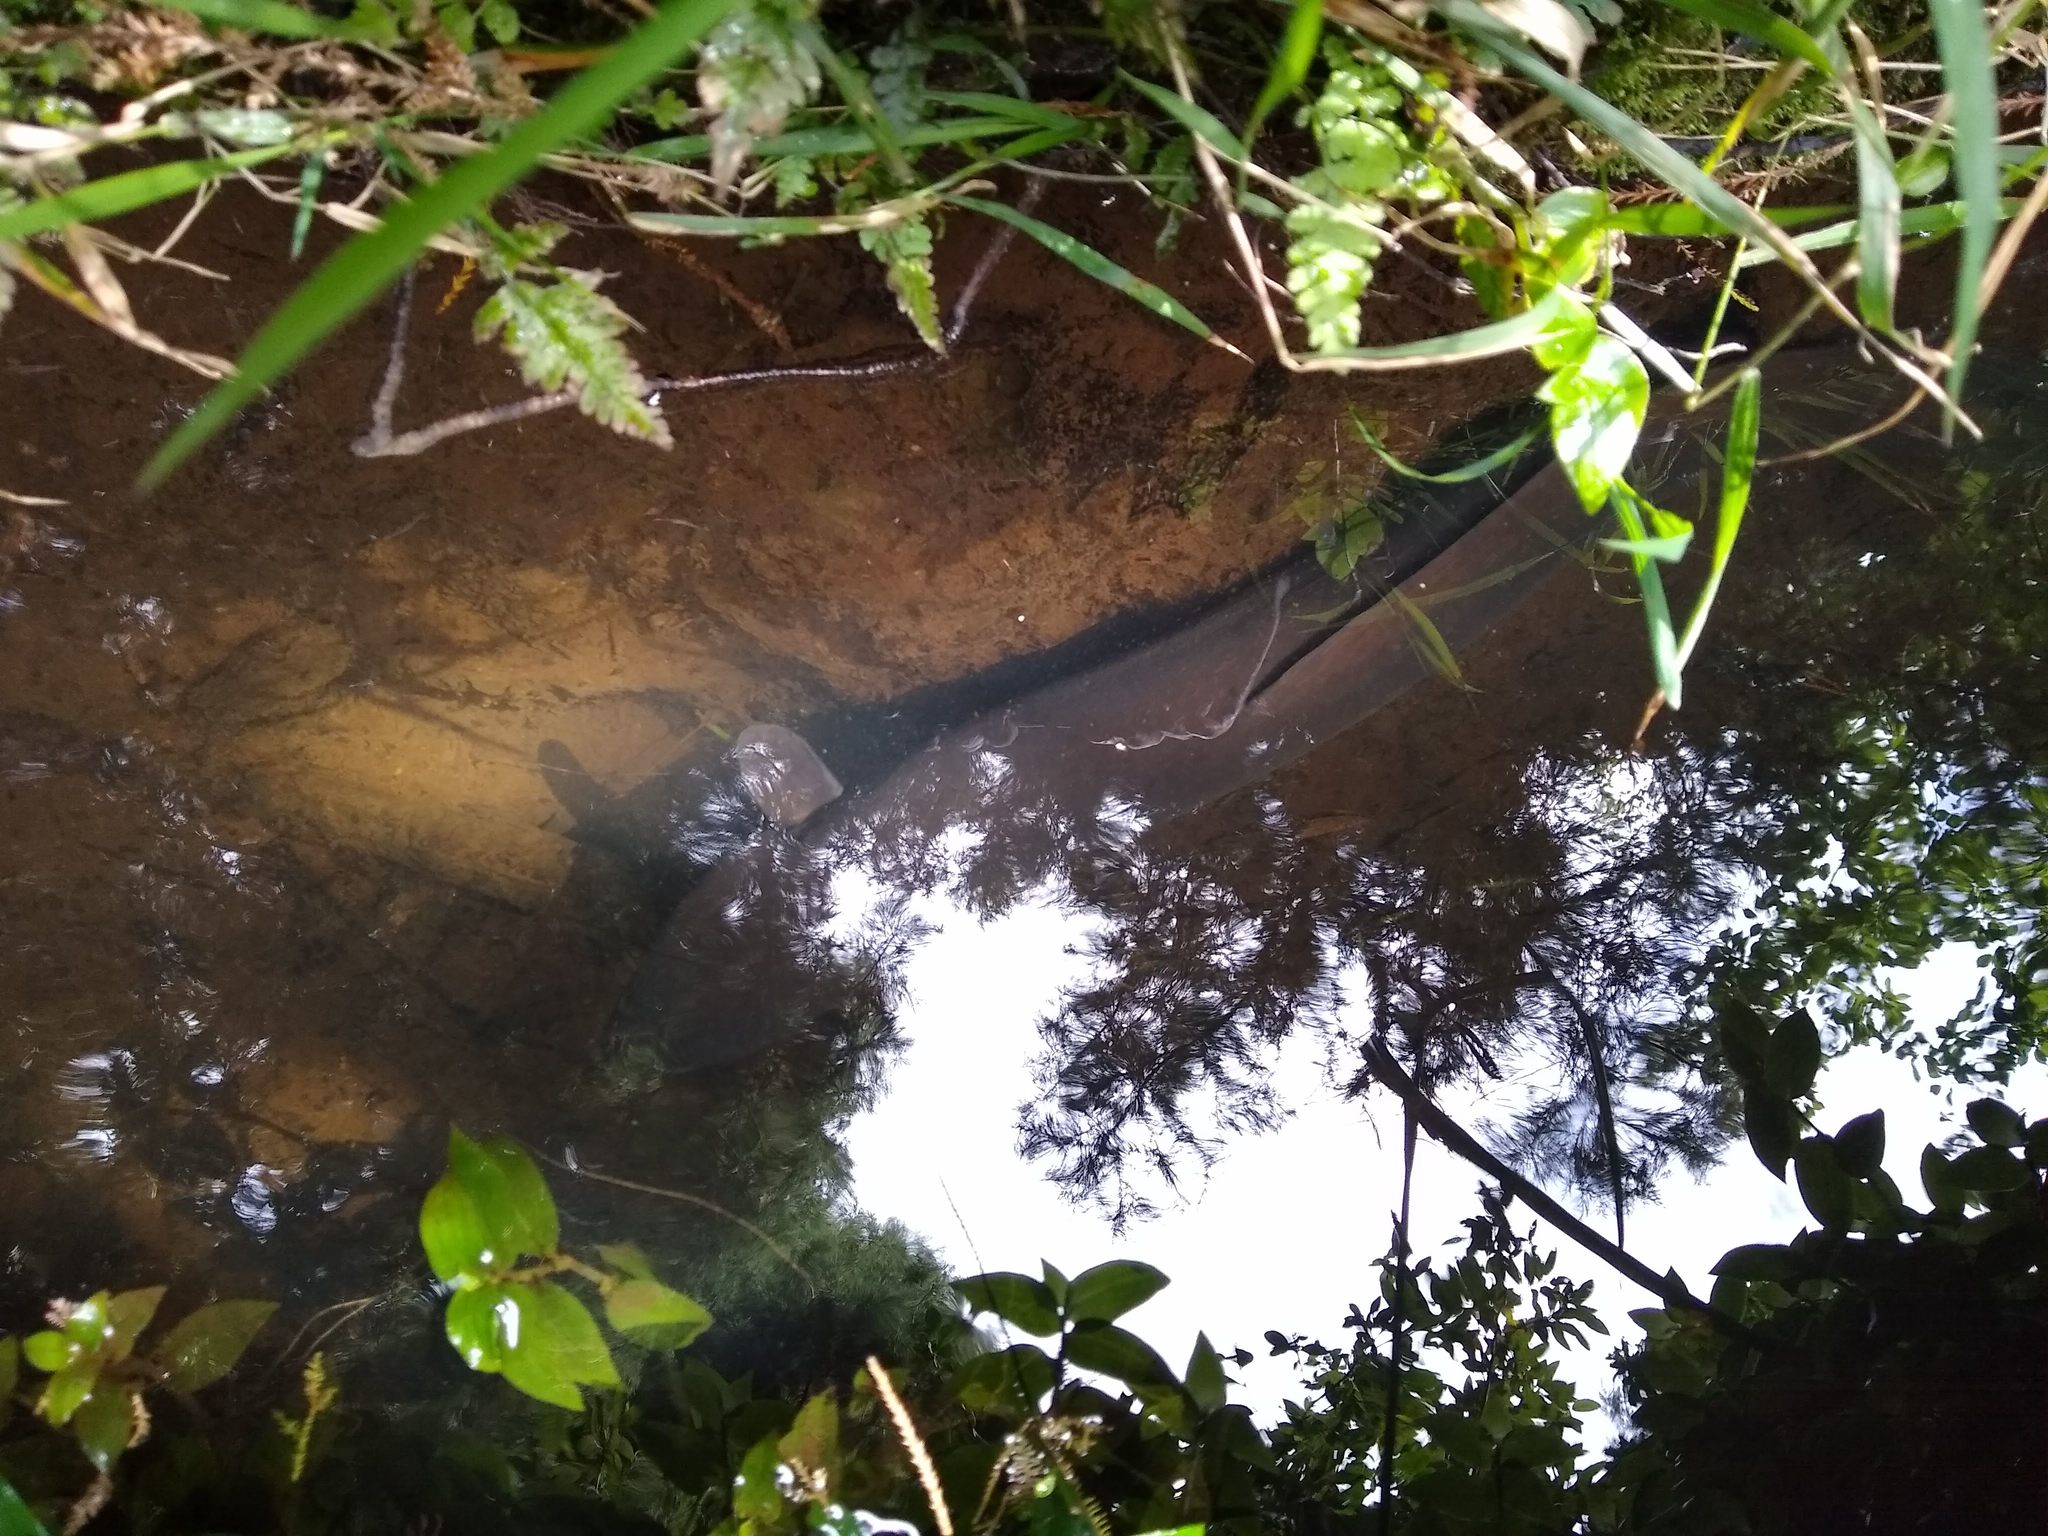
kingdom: Animalia
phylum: Chordata
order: Anguilliformes
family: Anguillidae
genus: Anguilla
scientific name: Anguilla dieffenbachii
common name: New zealand longfin eel
